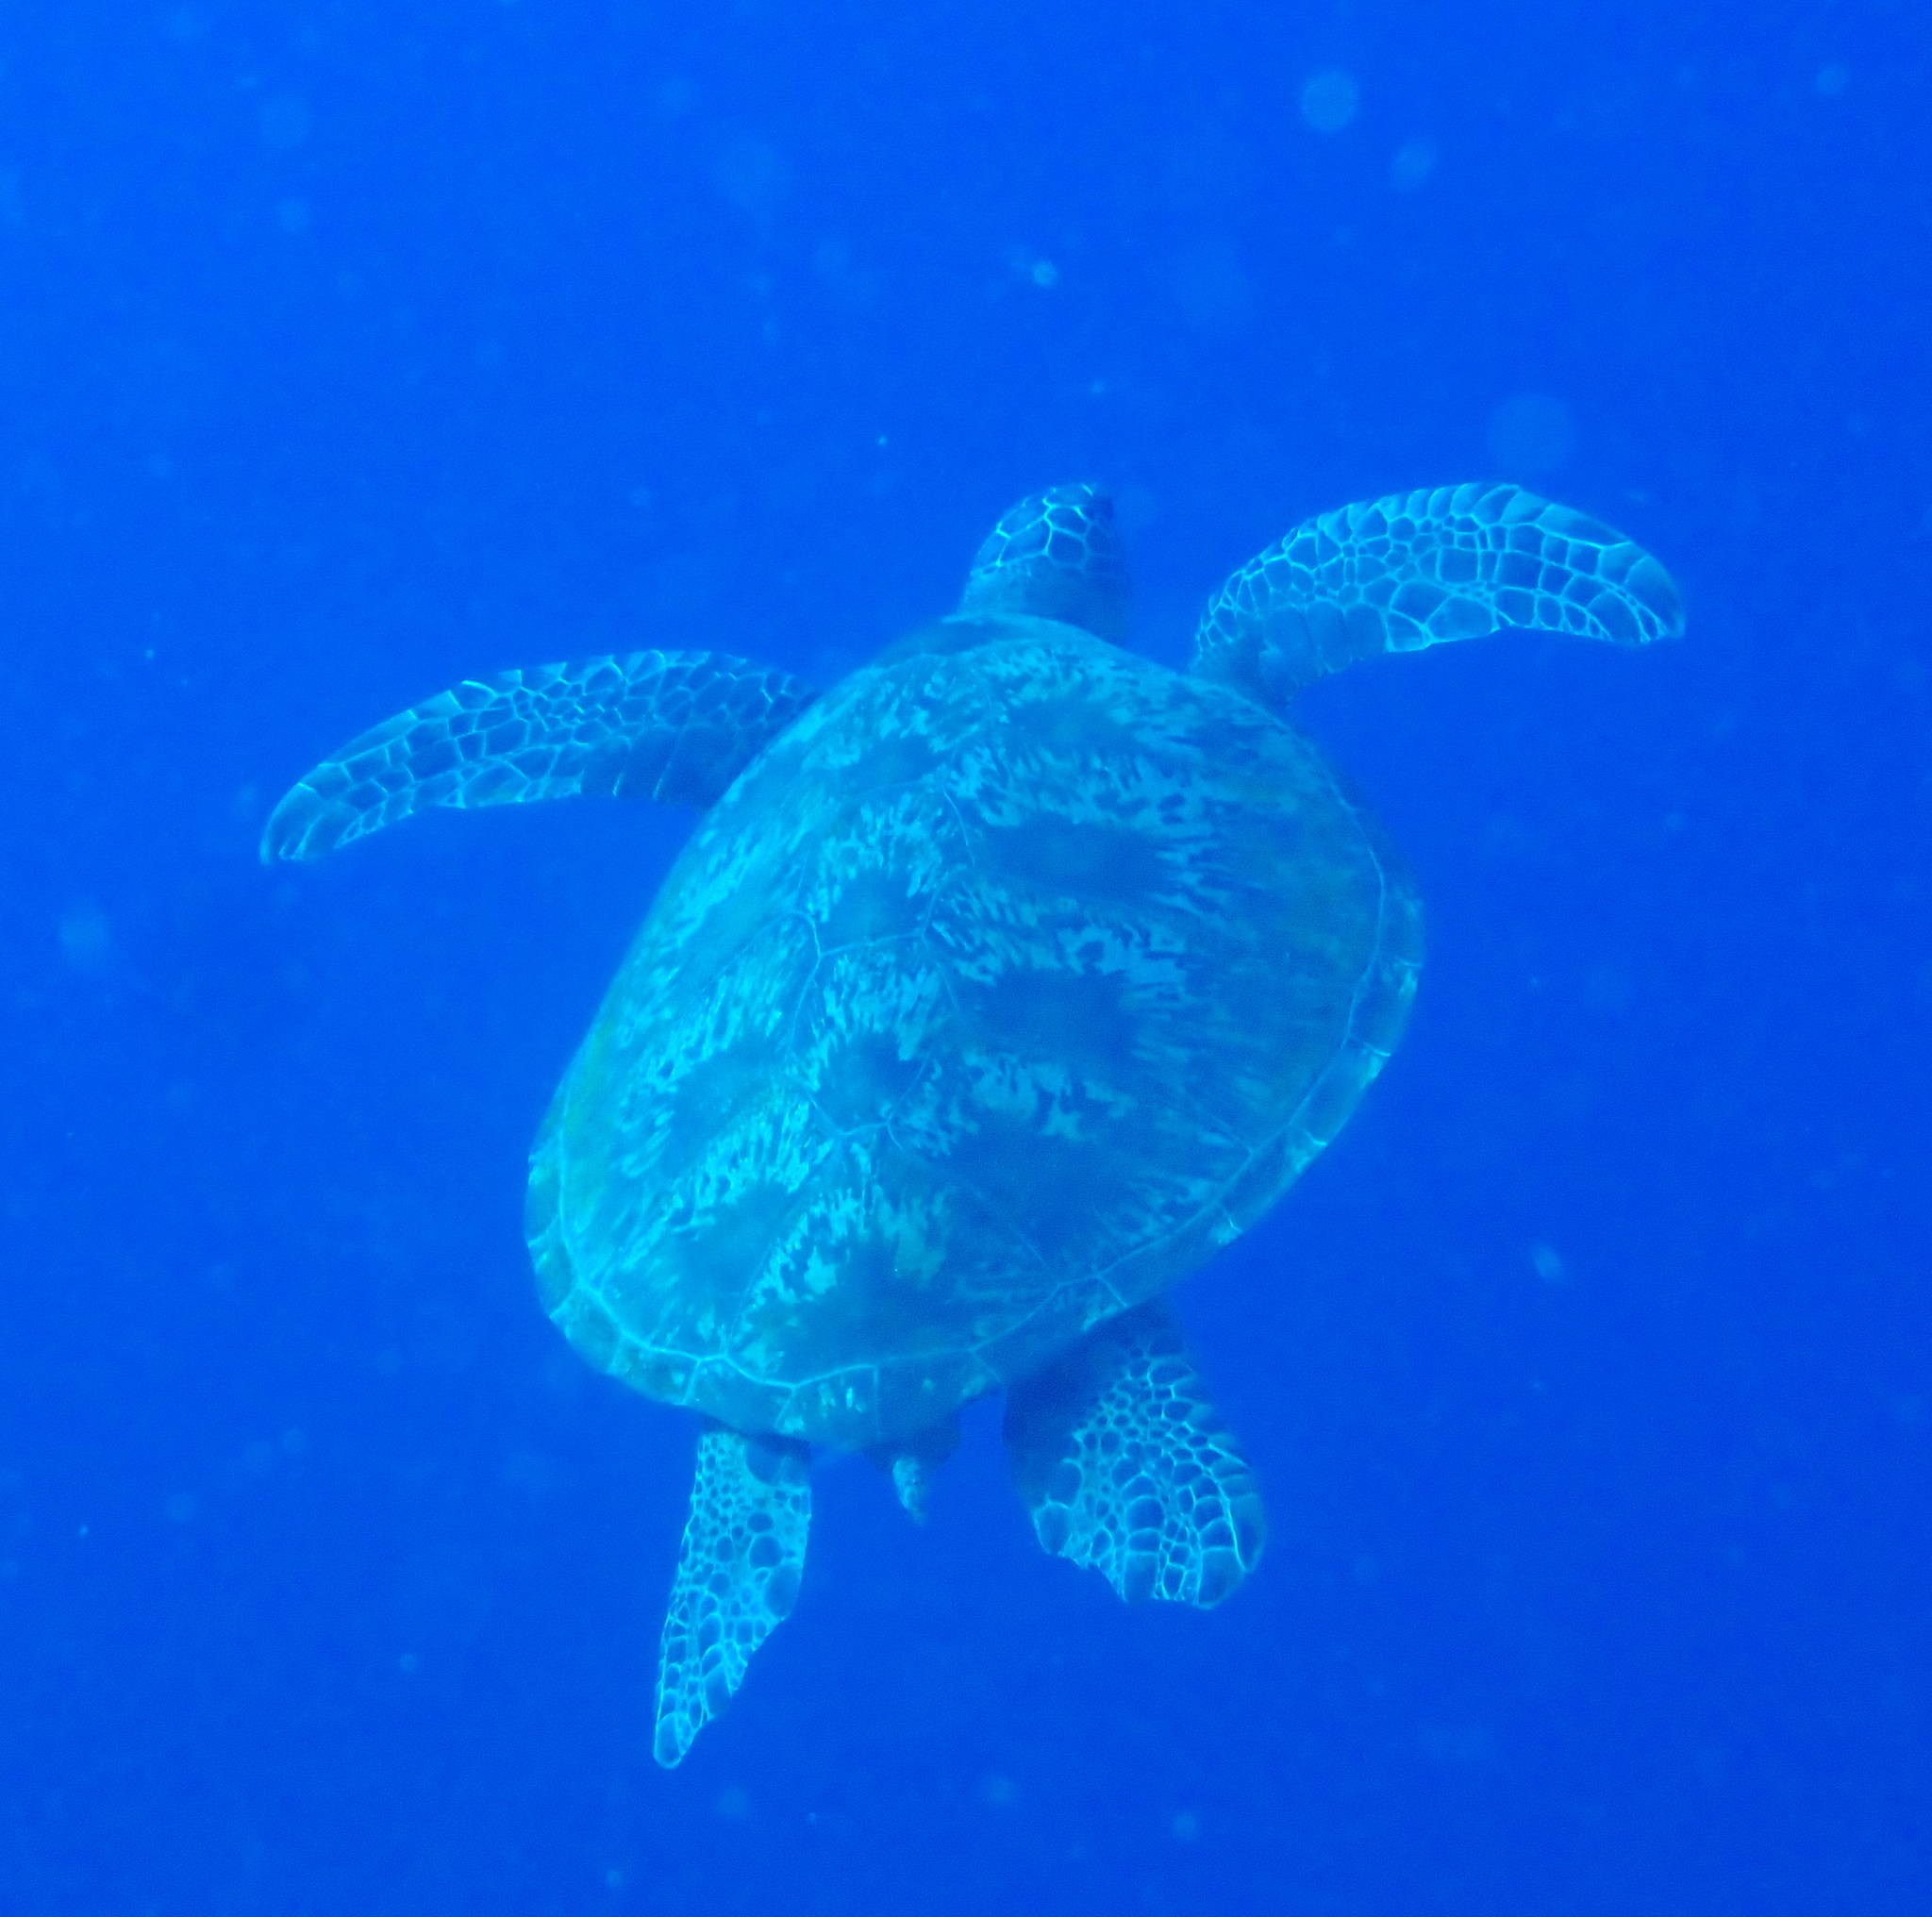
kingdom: Animalia
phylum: Chordata
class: Testudines
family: Cheloniidae
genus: Chelonia
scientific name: Chelonia mydas
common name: Green turtle
